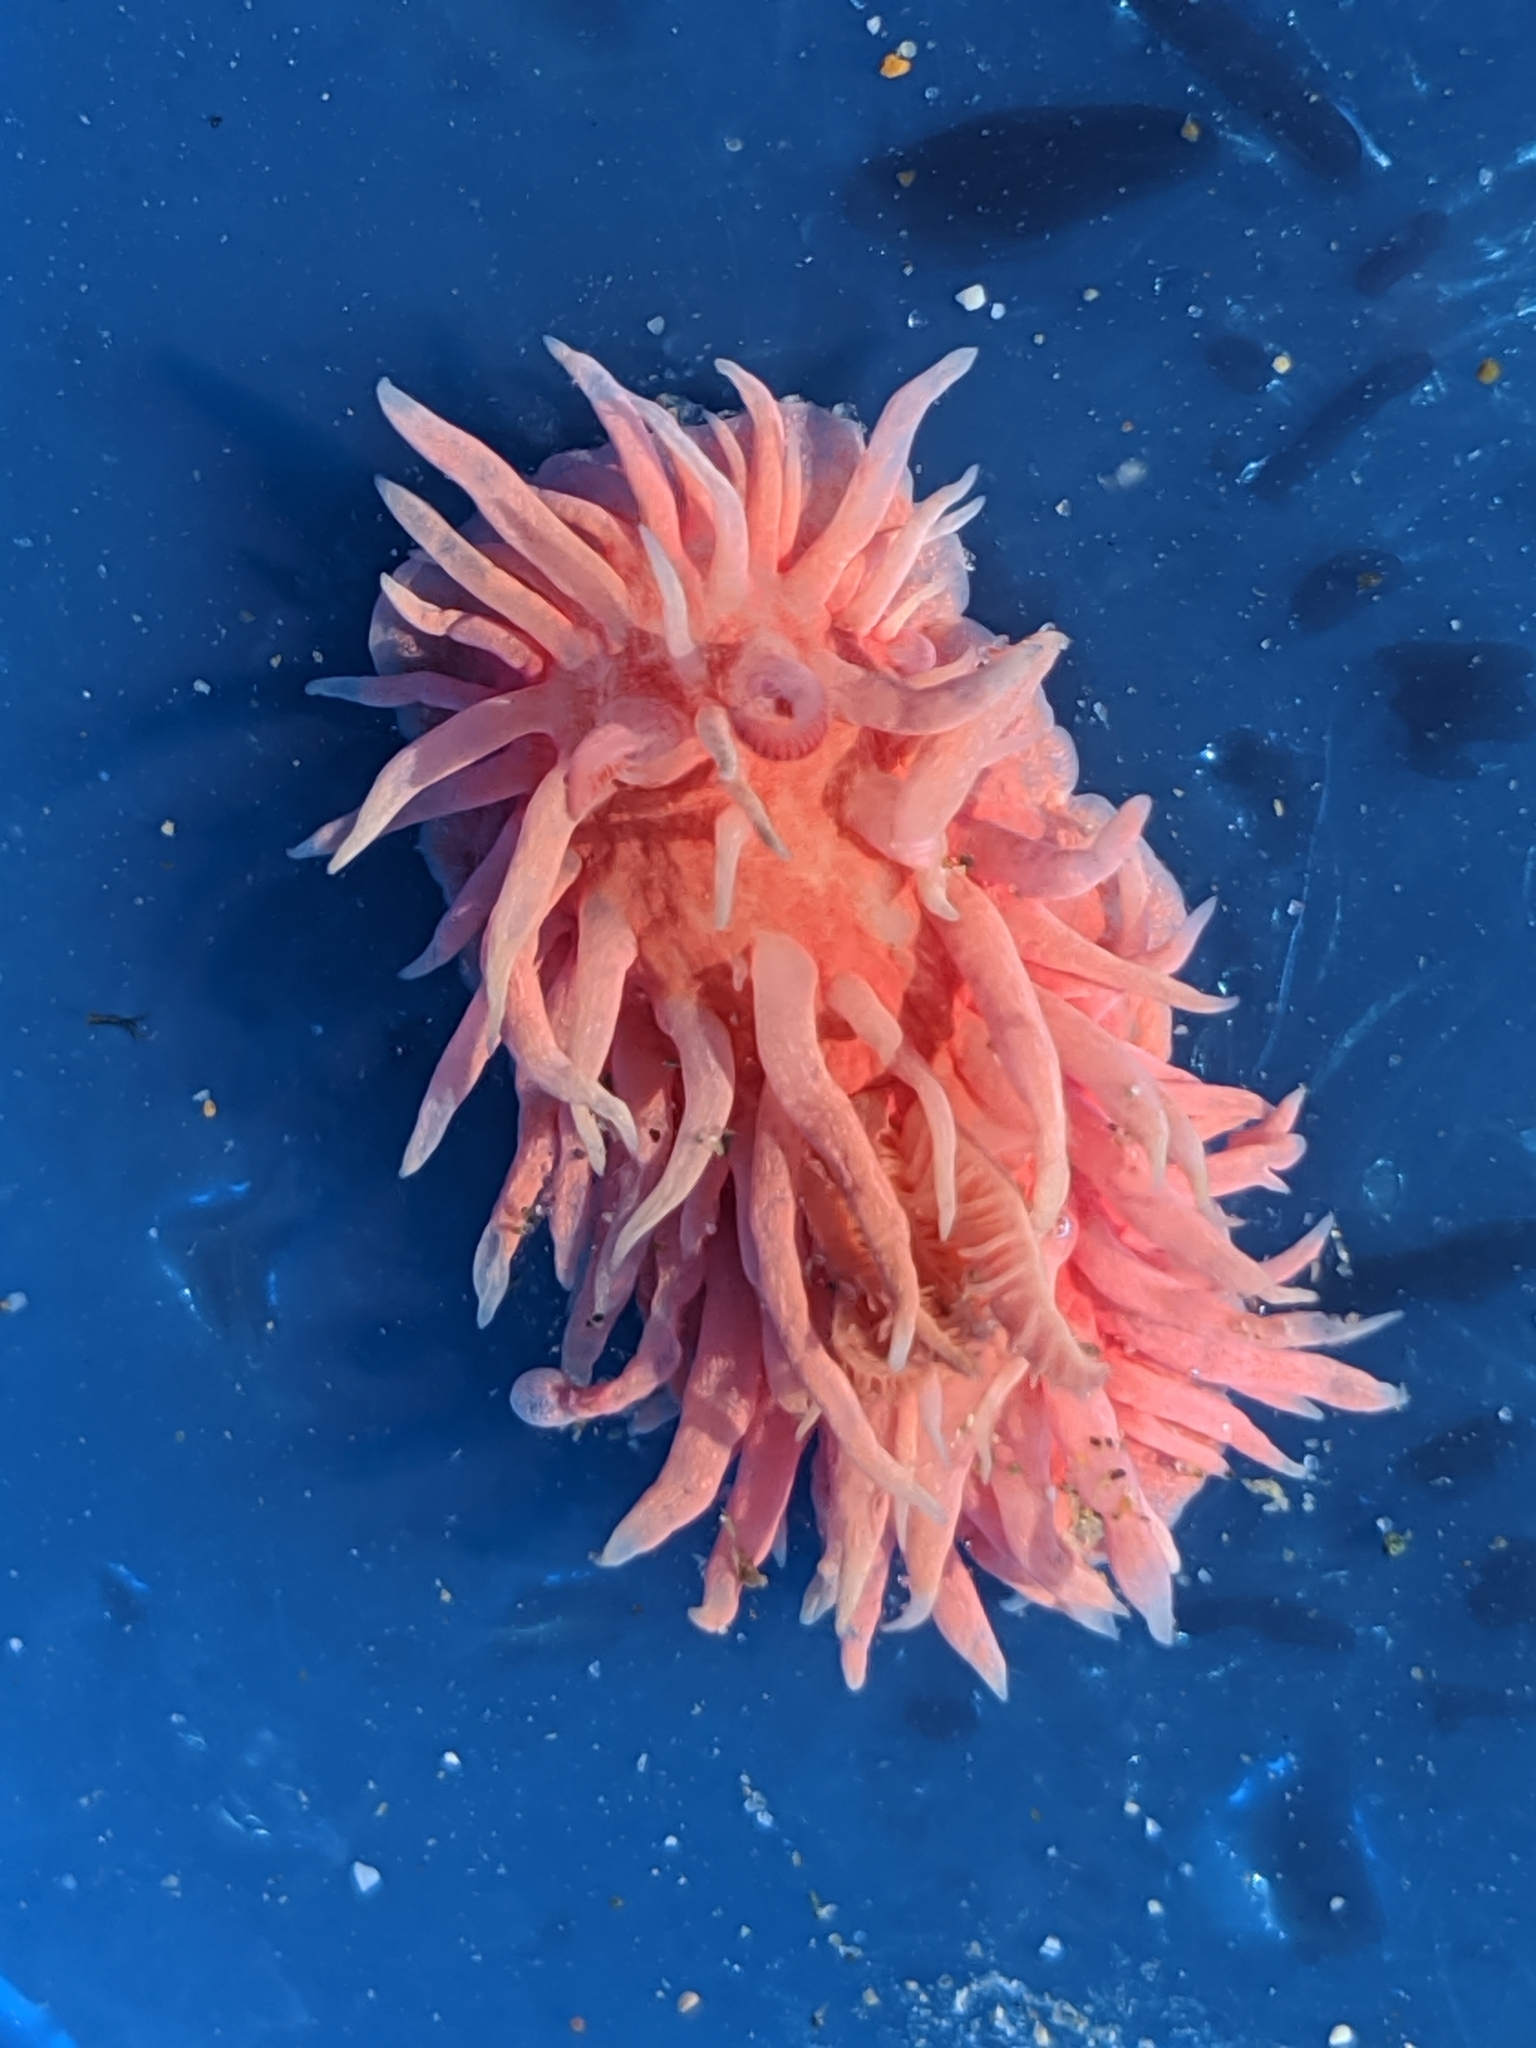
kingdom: Animalia
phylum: Mollusca
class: Gastropoda
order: Nudibranchia
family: Goniodorididae
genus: Okenia
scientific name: Okenia
